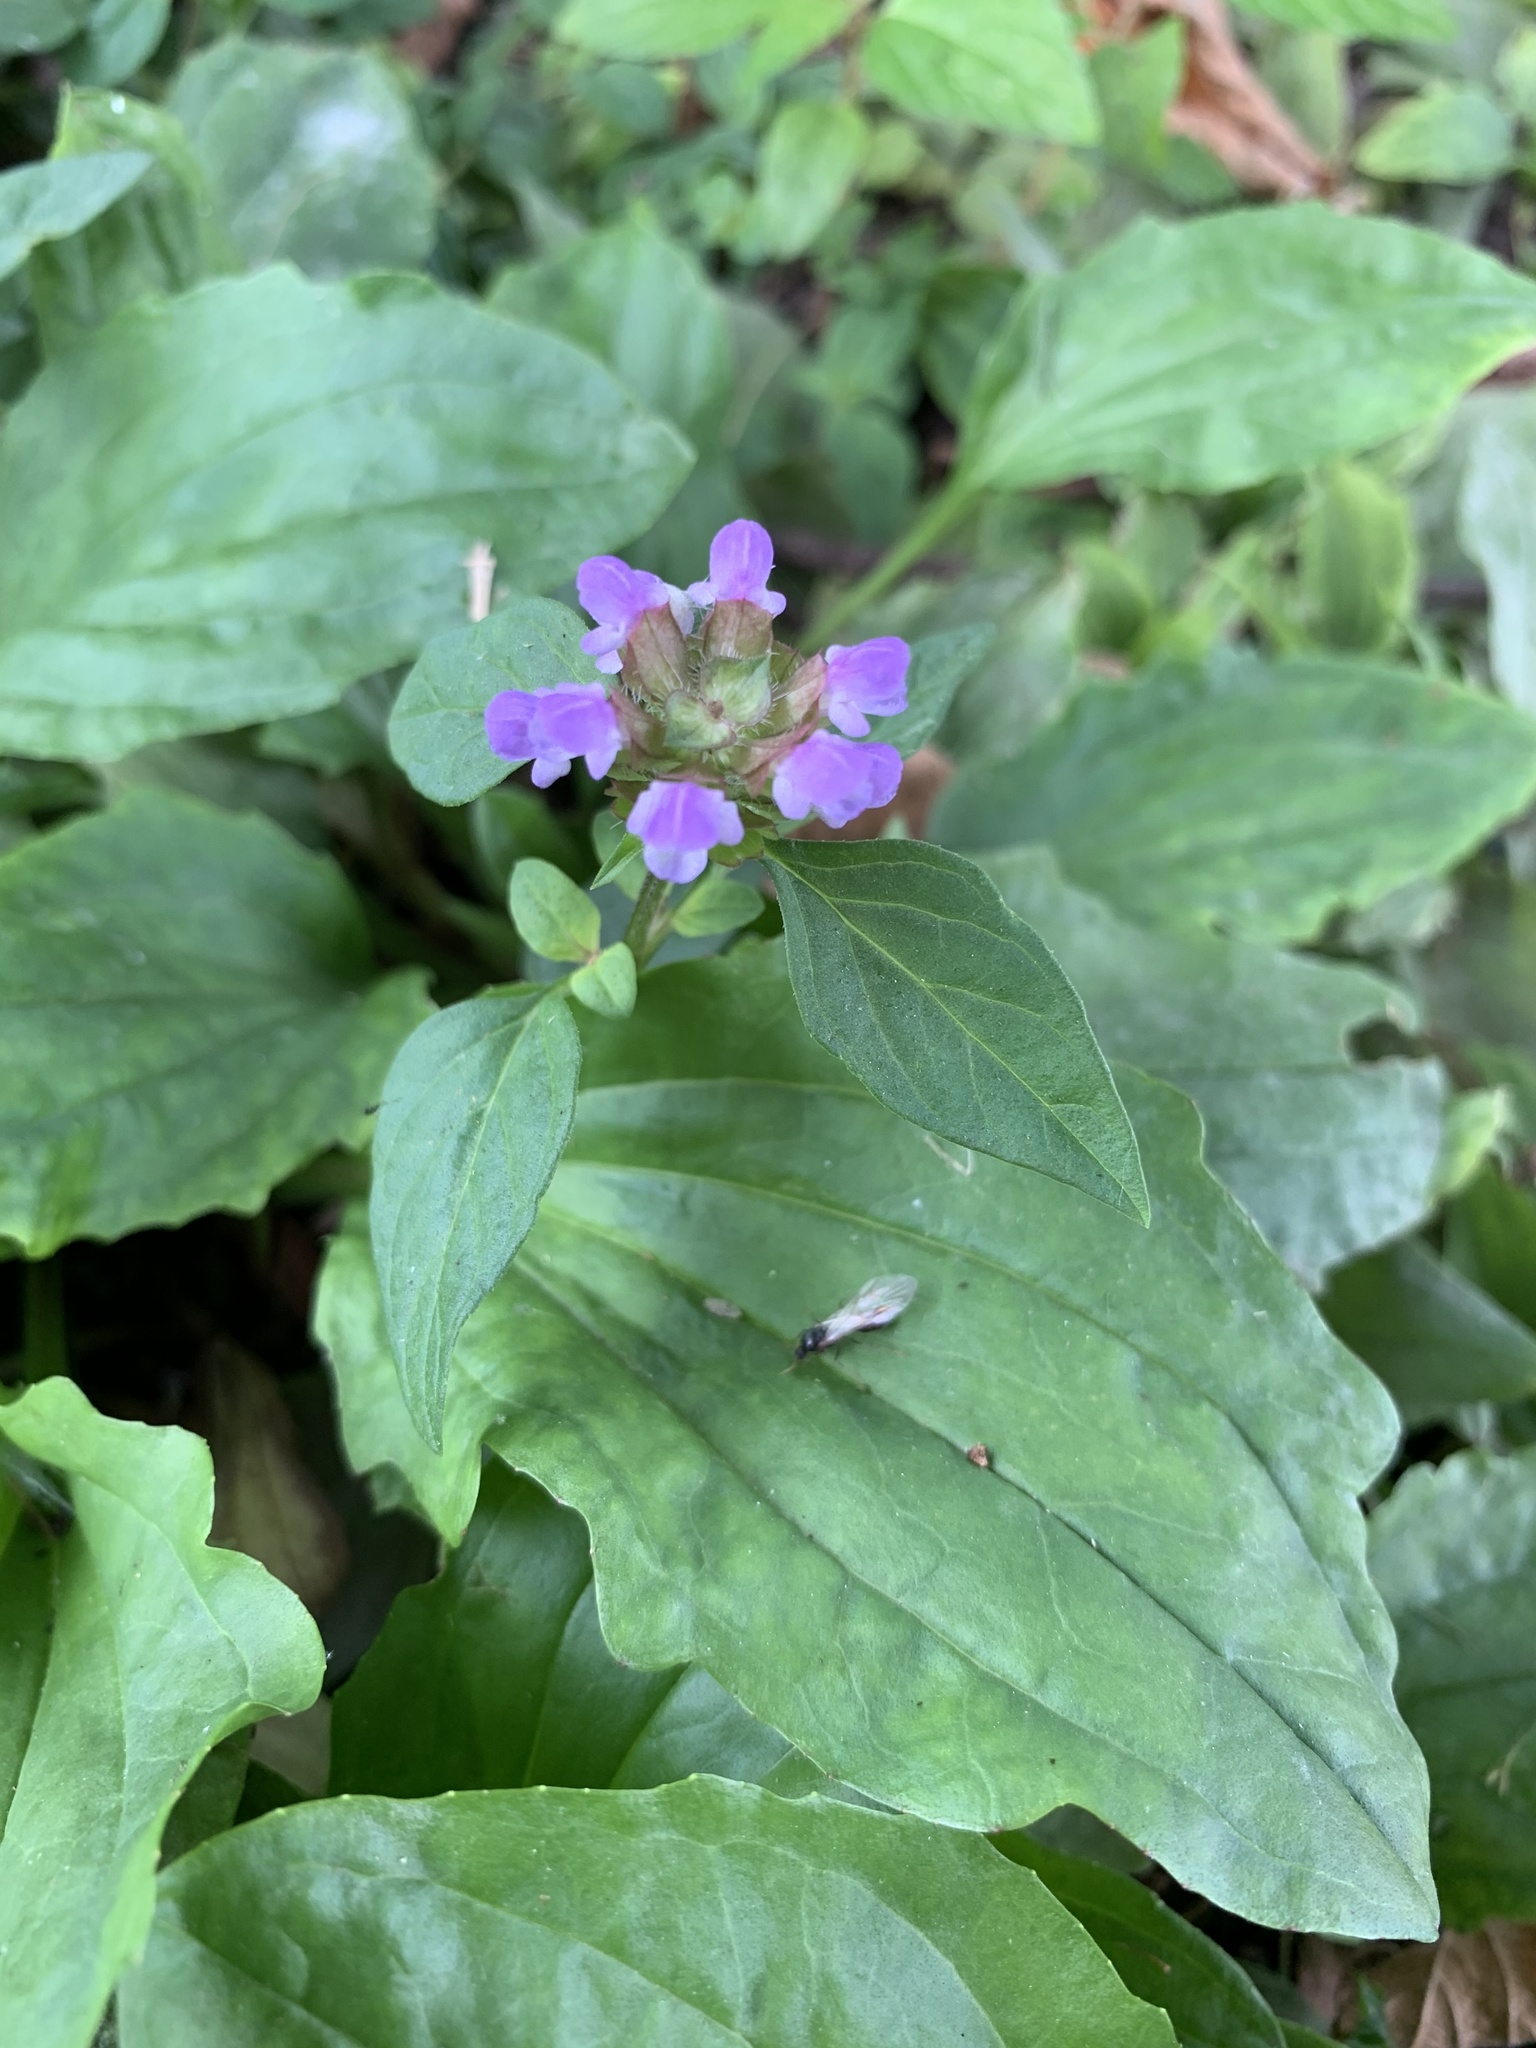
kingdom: Plantae
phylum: Tracheophyta
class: Magnoliopsida
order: Lamiales
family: Lamiaceae
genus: Prunella
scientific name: Prunella vulgaris
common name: Heal-all
